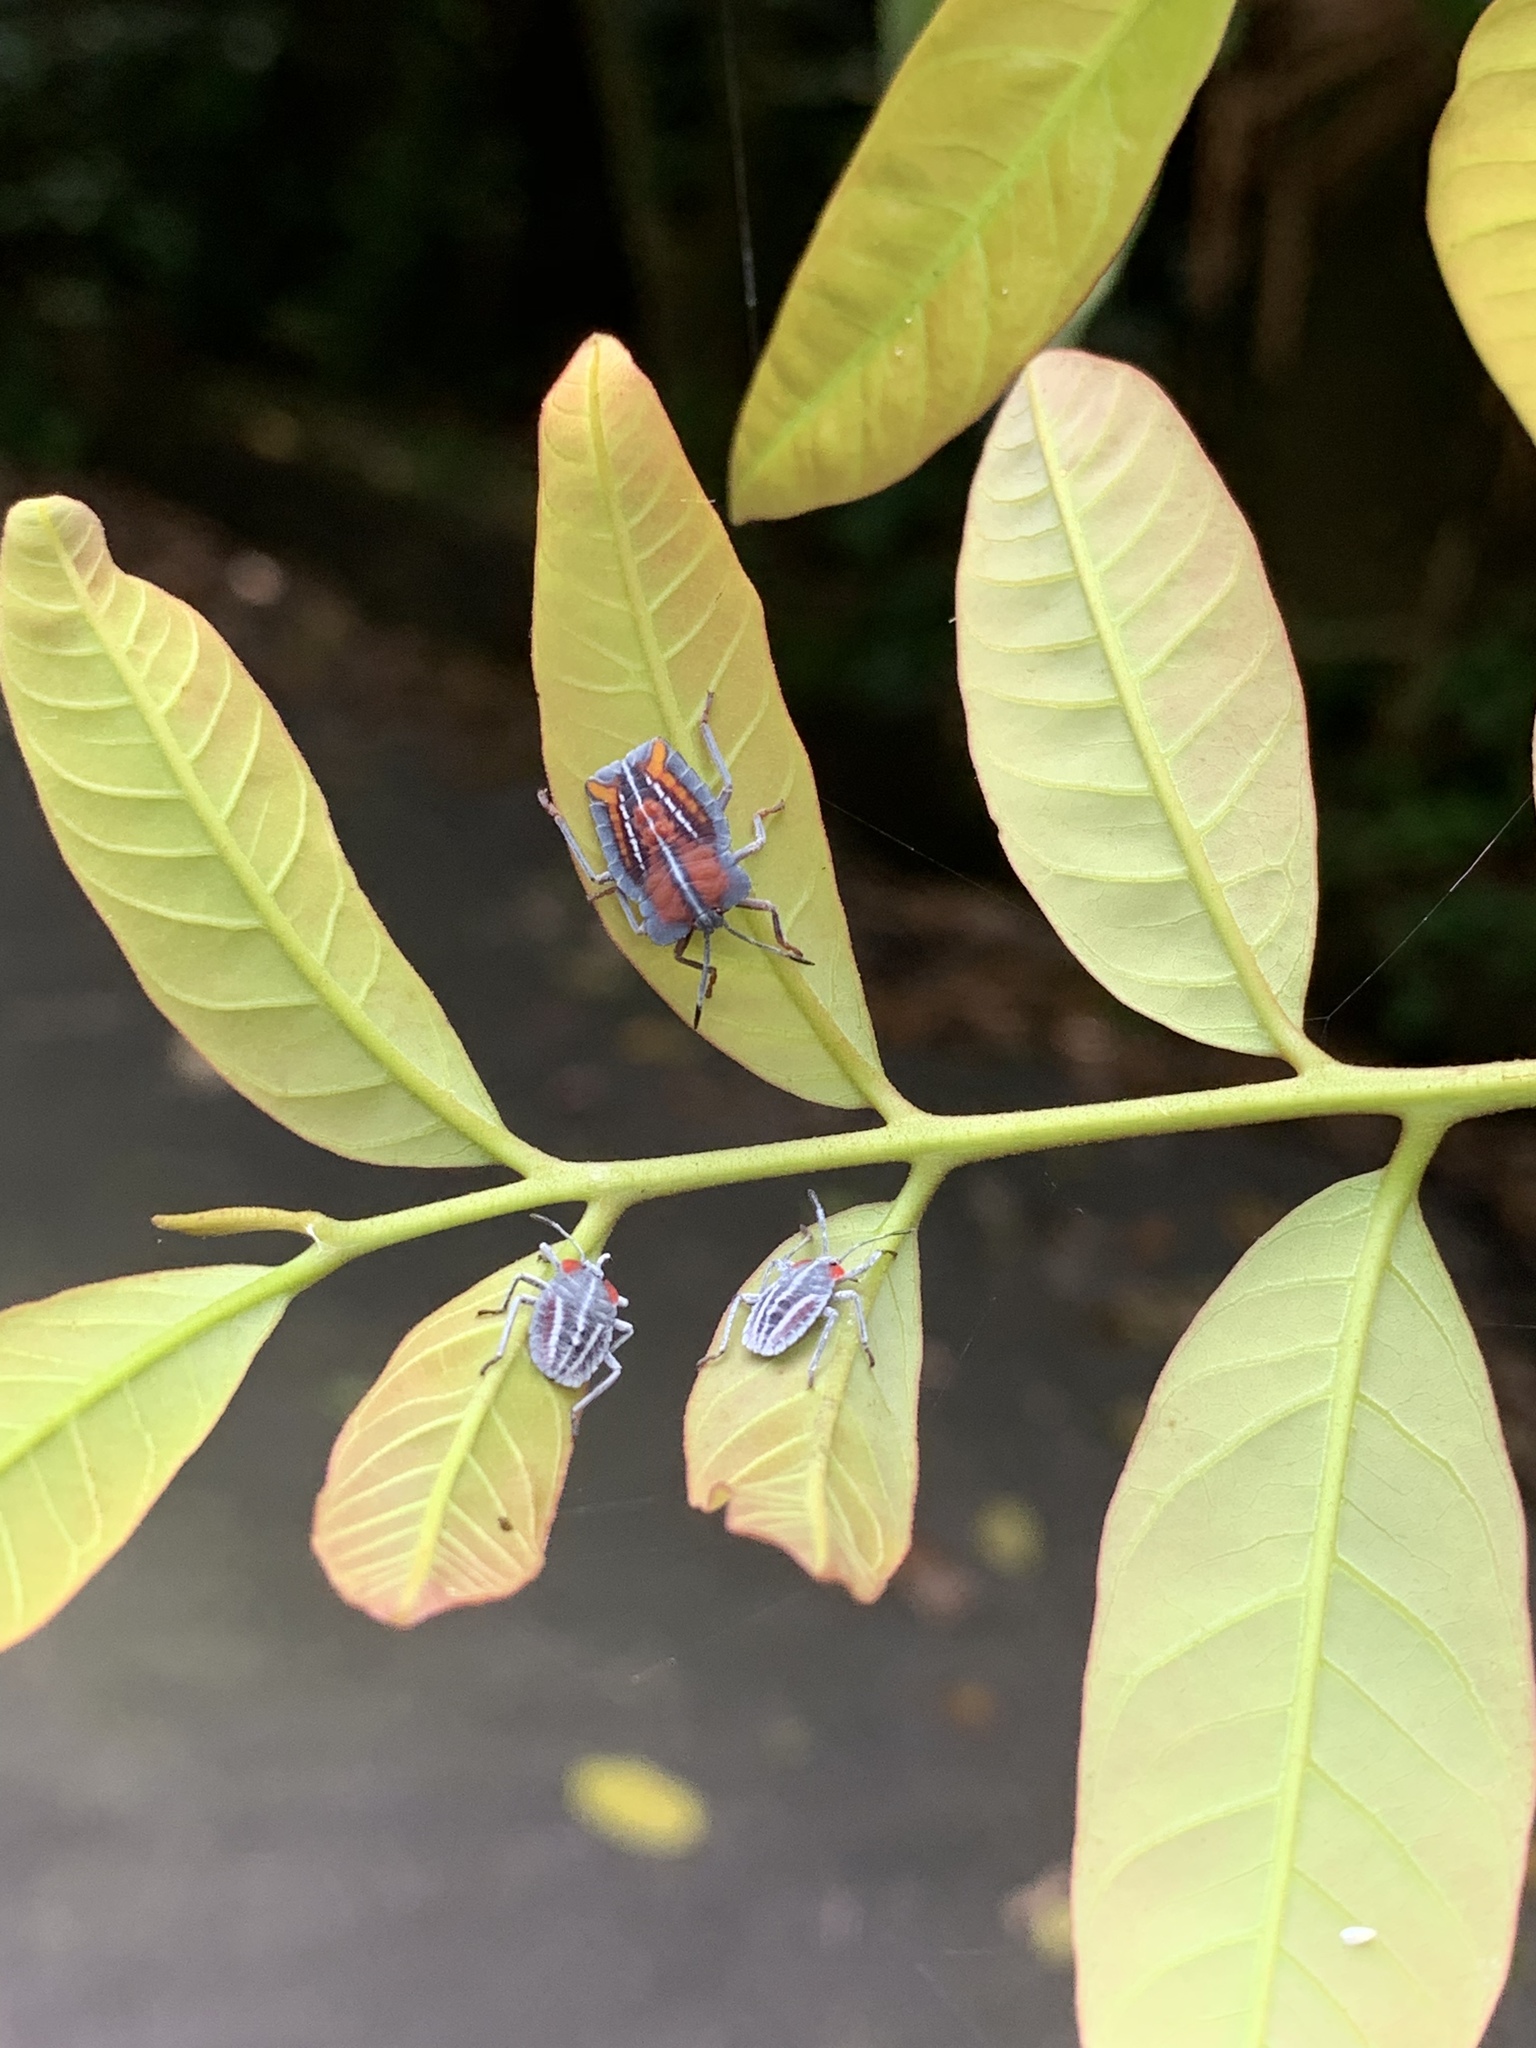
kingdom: Animalia
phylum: Arthropoda
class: Insecta
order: Hemiptera
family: Tessaratomidae
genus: Tessaratoma
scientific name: Tessaratoma papillosa
